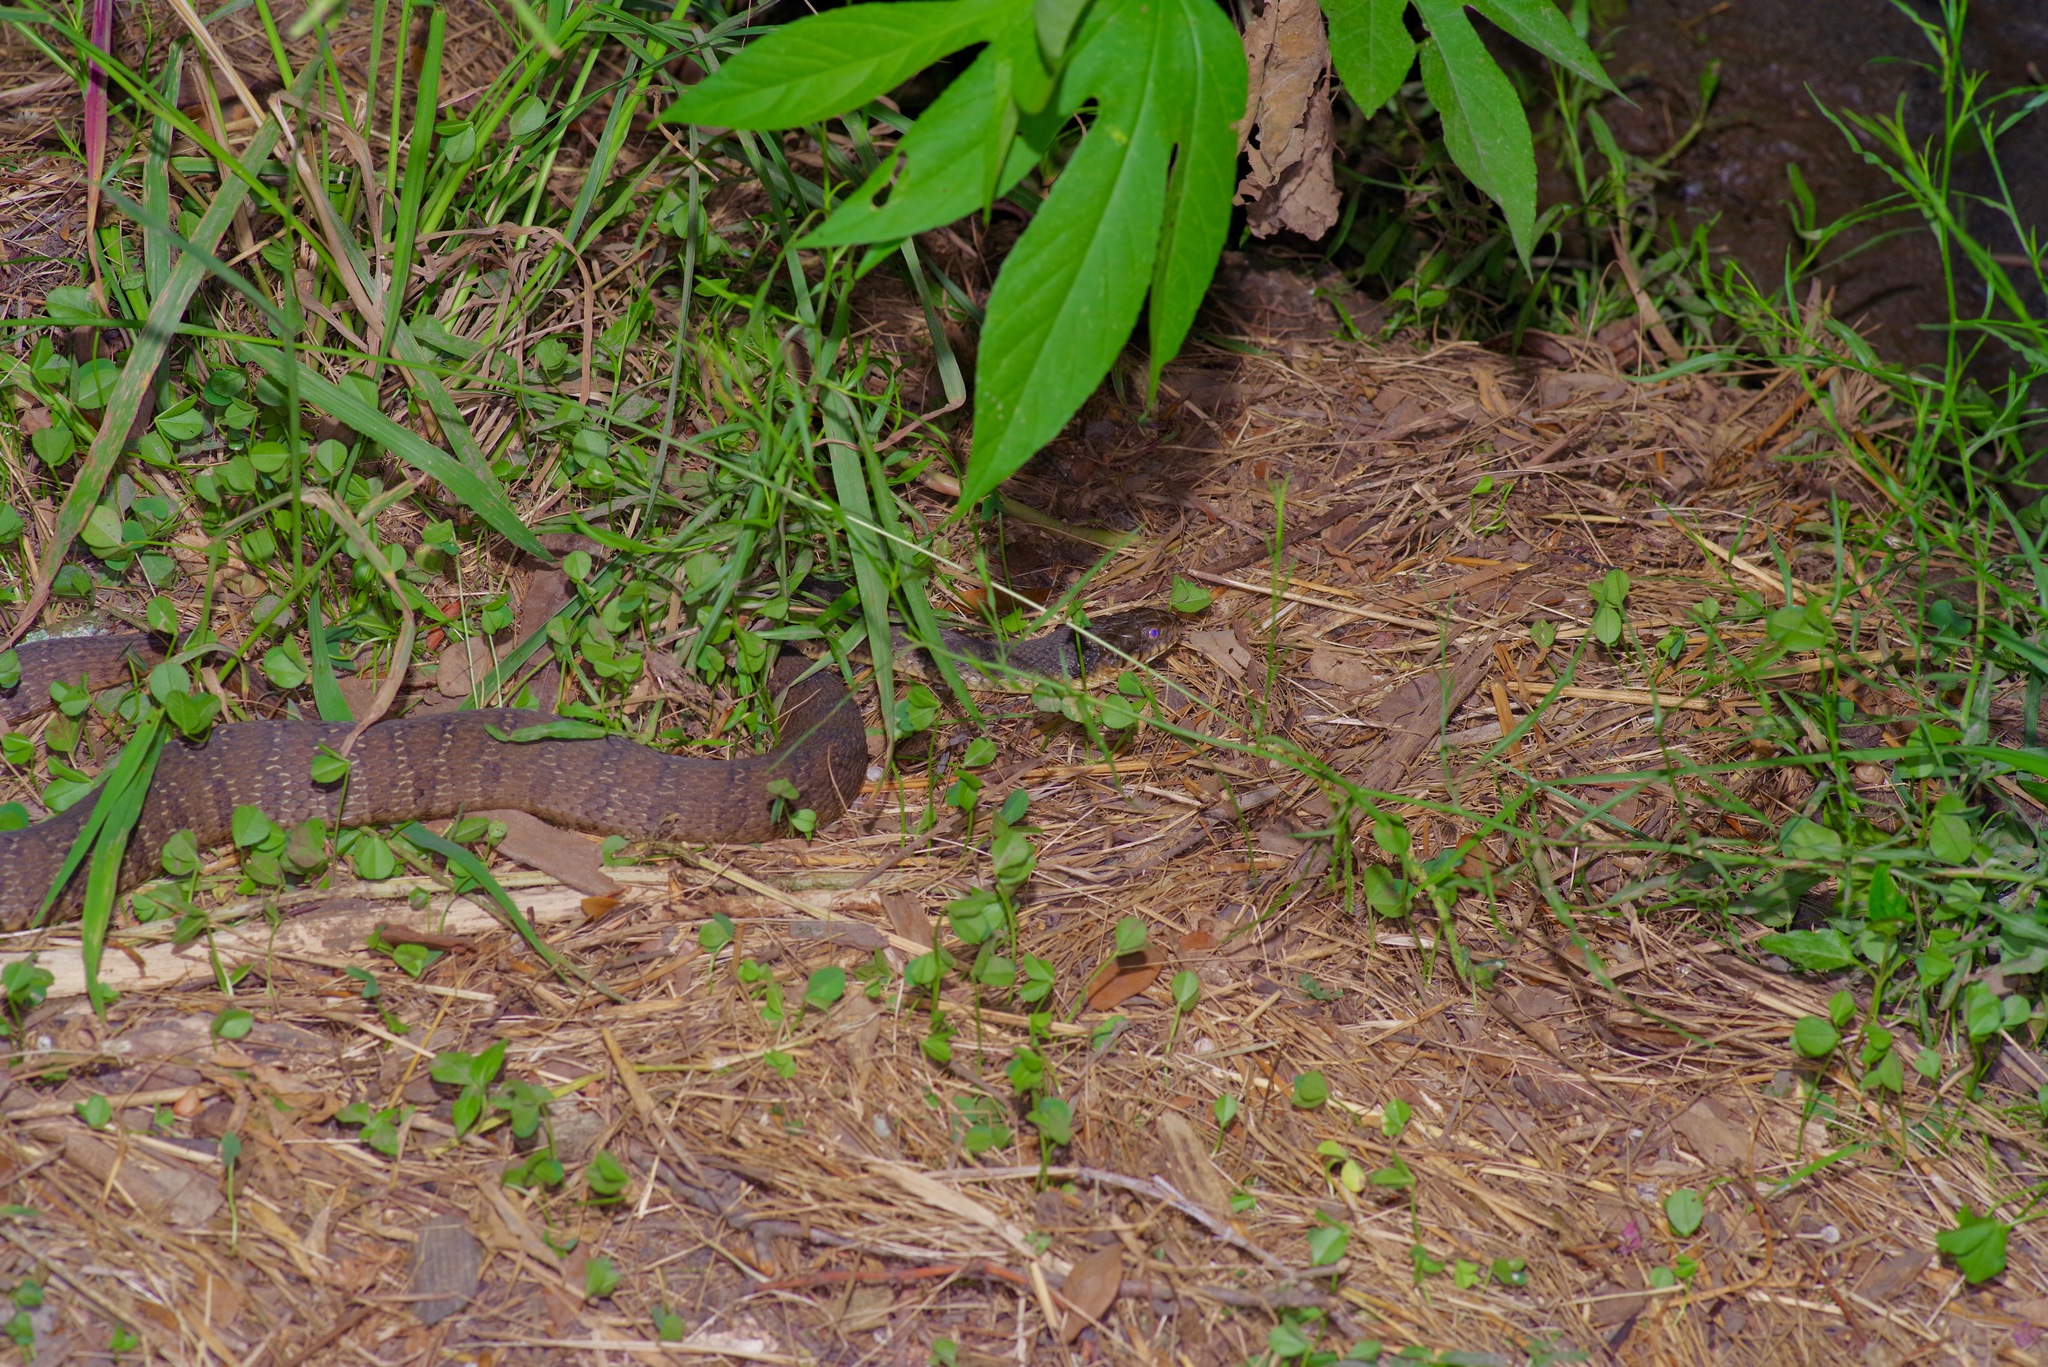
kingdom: Animalia
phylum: Chordata
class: Squamata
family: Colubridae
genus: Nerodia
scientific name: Nerodia erythrogaster
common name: Plainbelly water snake
